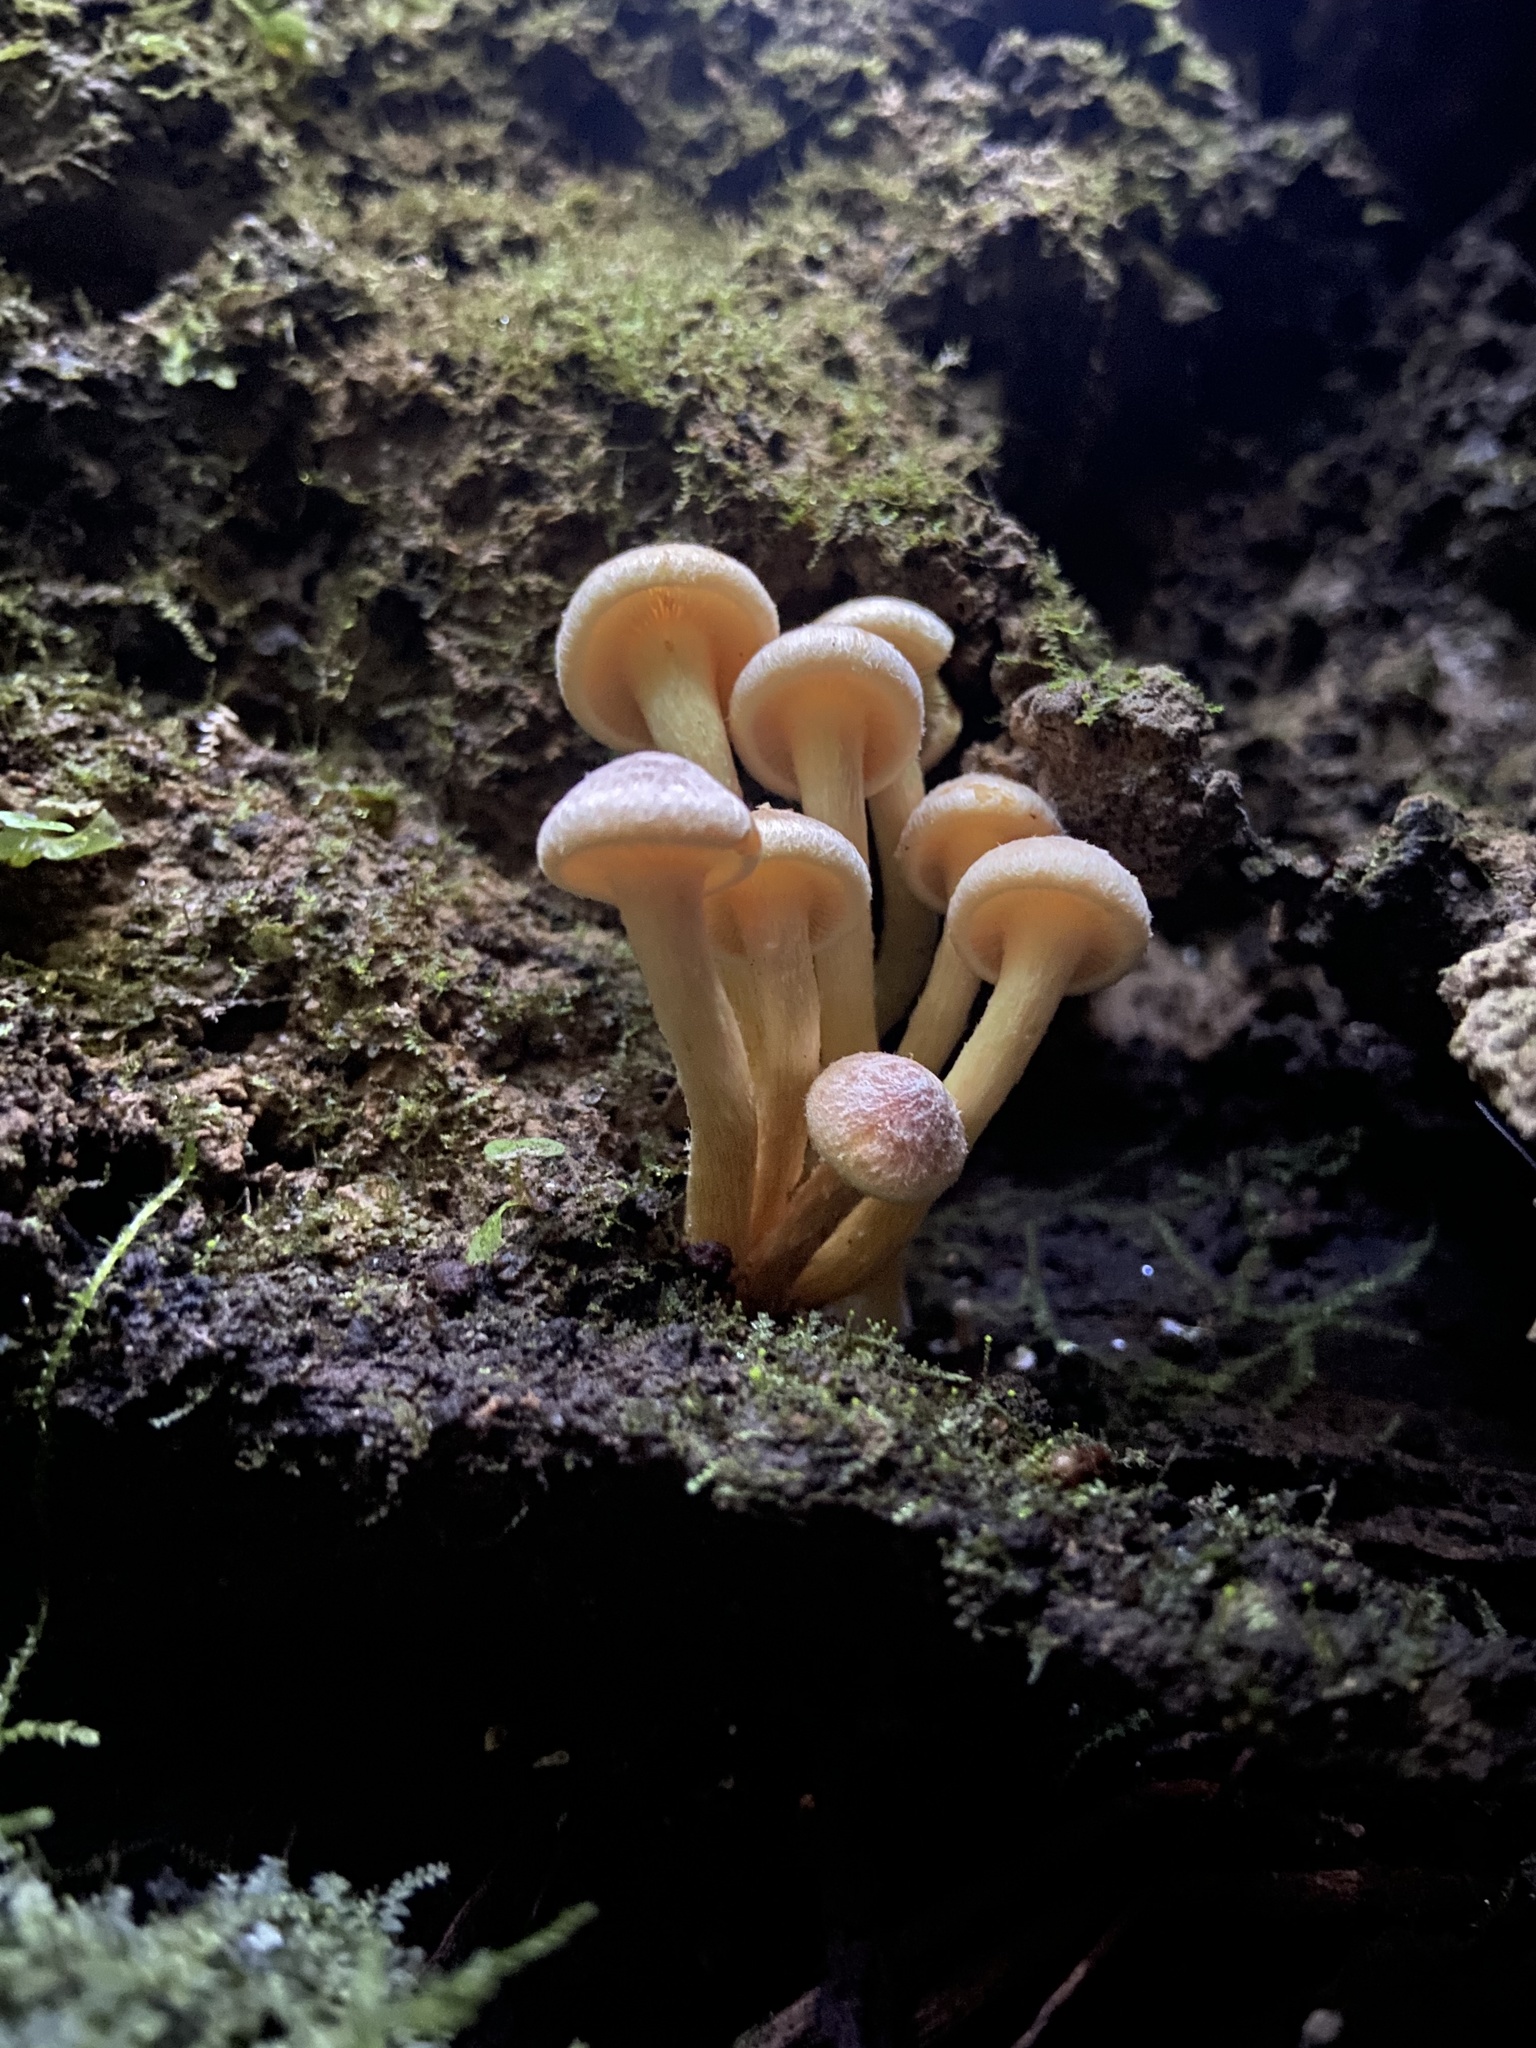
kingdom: Fungi
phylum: Basidiomycota
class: Agaricomycetes
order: Agaricales
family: Strophariaceae
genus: Hypholoma
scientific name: Hypholoma fasciculare
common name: Sulphur tuft
